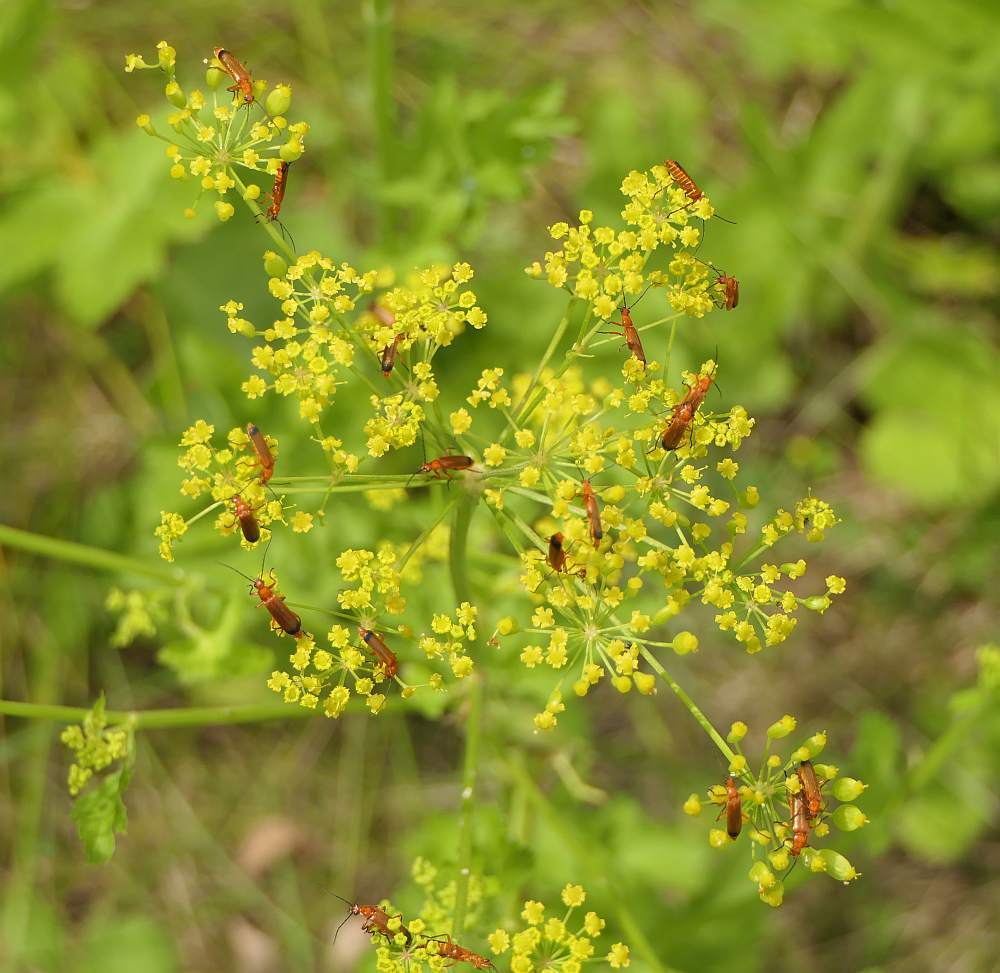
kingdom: Animalia
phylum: Arthropoda
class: Insecta
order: Coleoptera
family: Cantharidae
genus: Rhagonycha
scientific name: Rhagonycha fulva
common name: Common red soldier beetle
